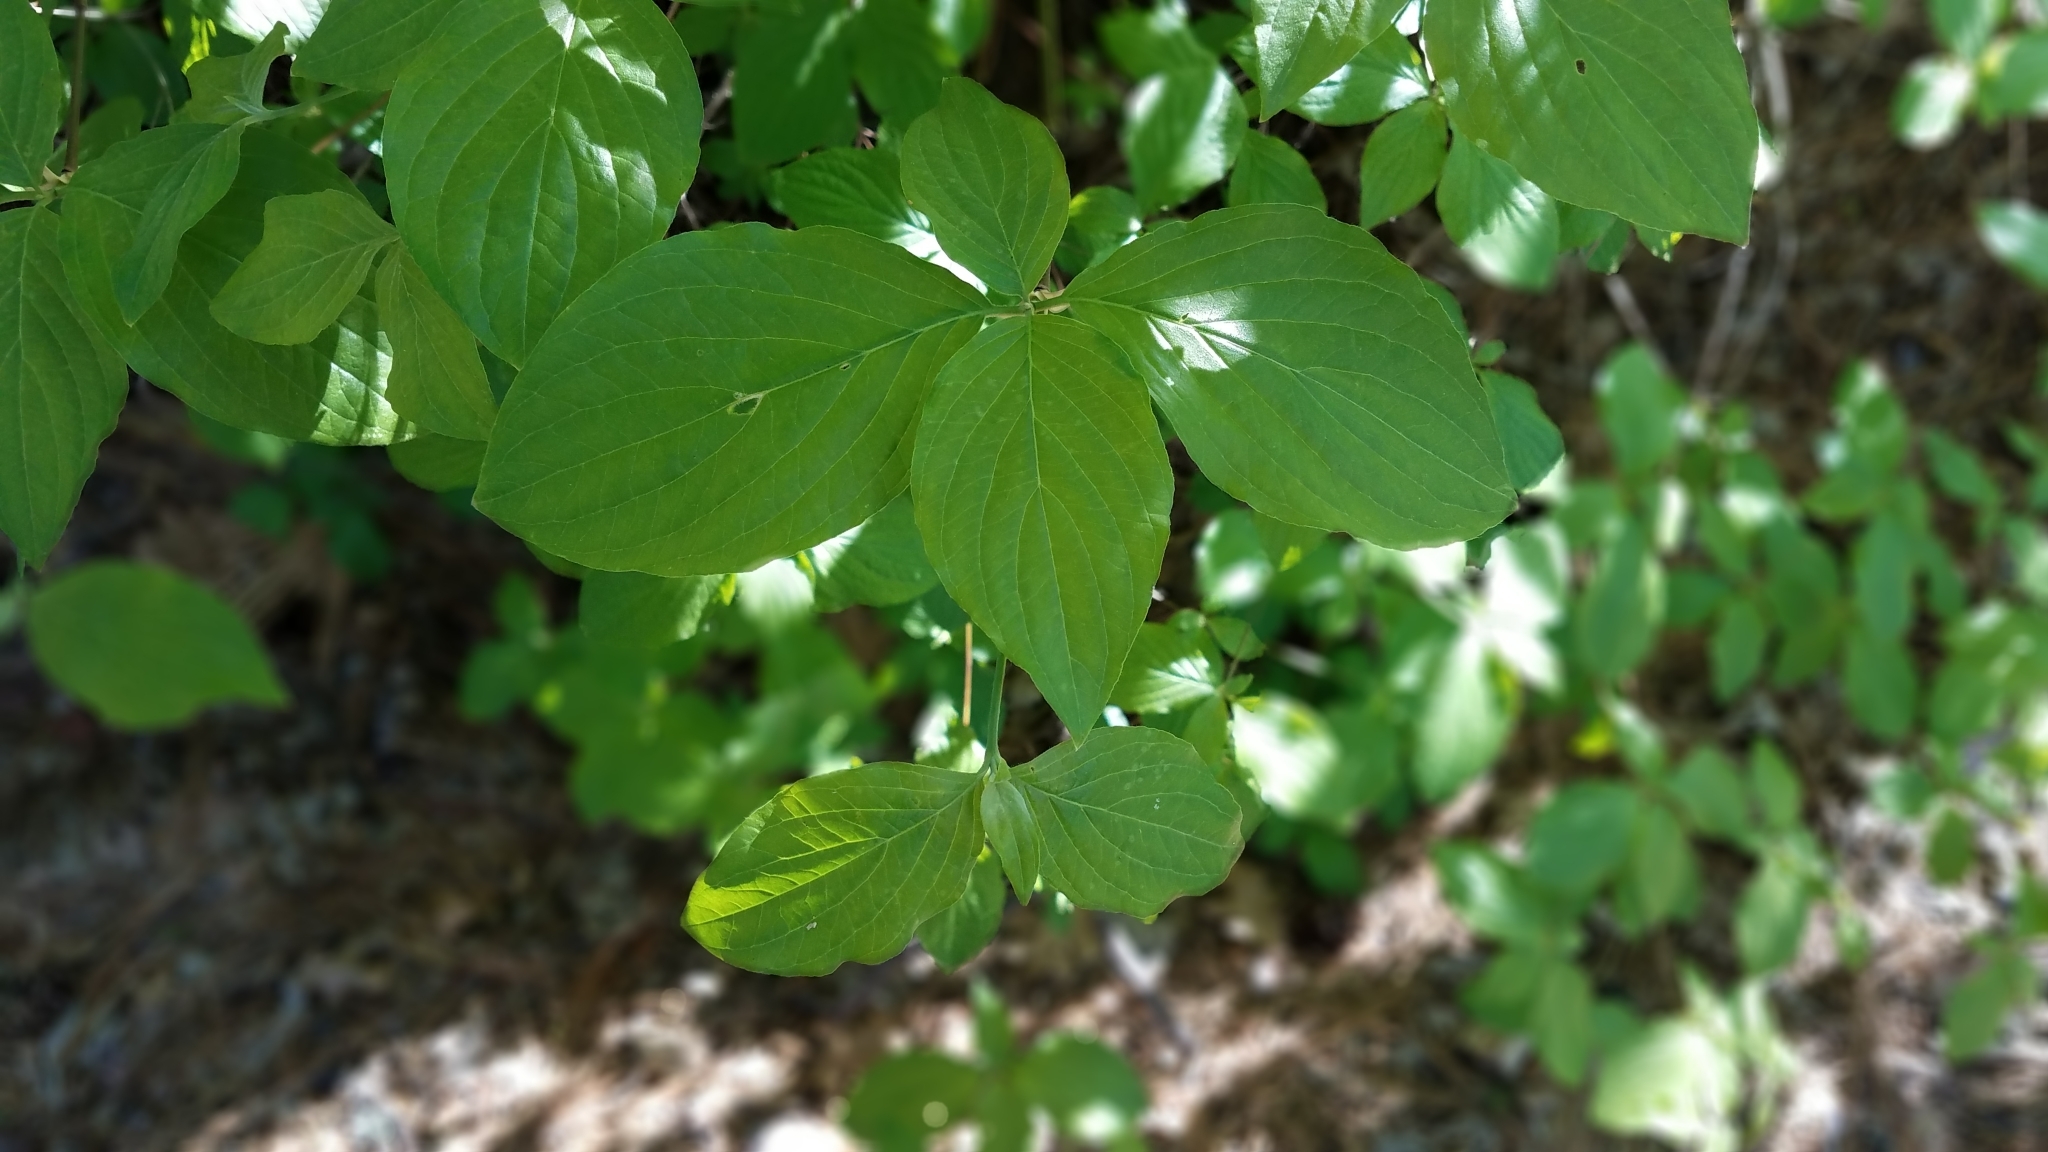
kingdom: Plantae
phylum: Tracheophyta
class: Magnoliopsida
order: Cornales
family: Cornaceae
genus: Cornus
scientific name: Cornus nuttallii
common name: Pacific dogwood
